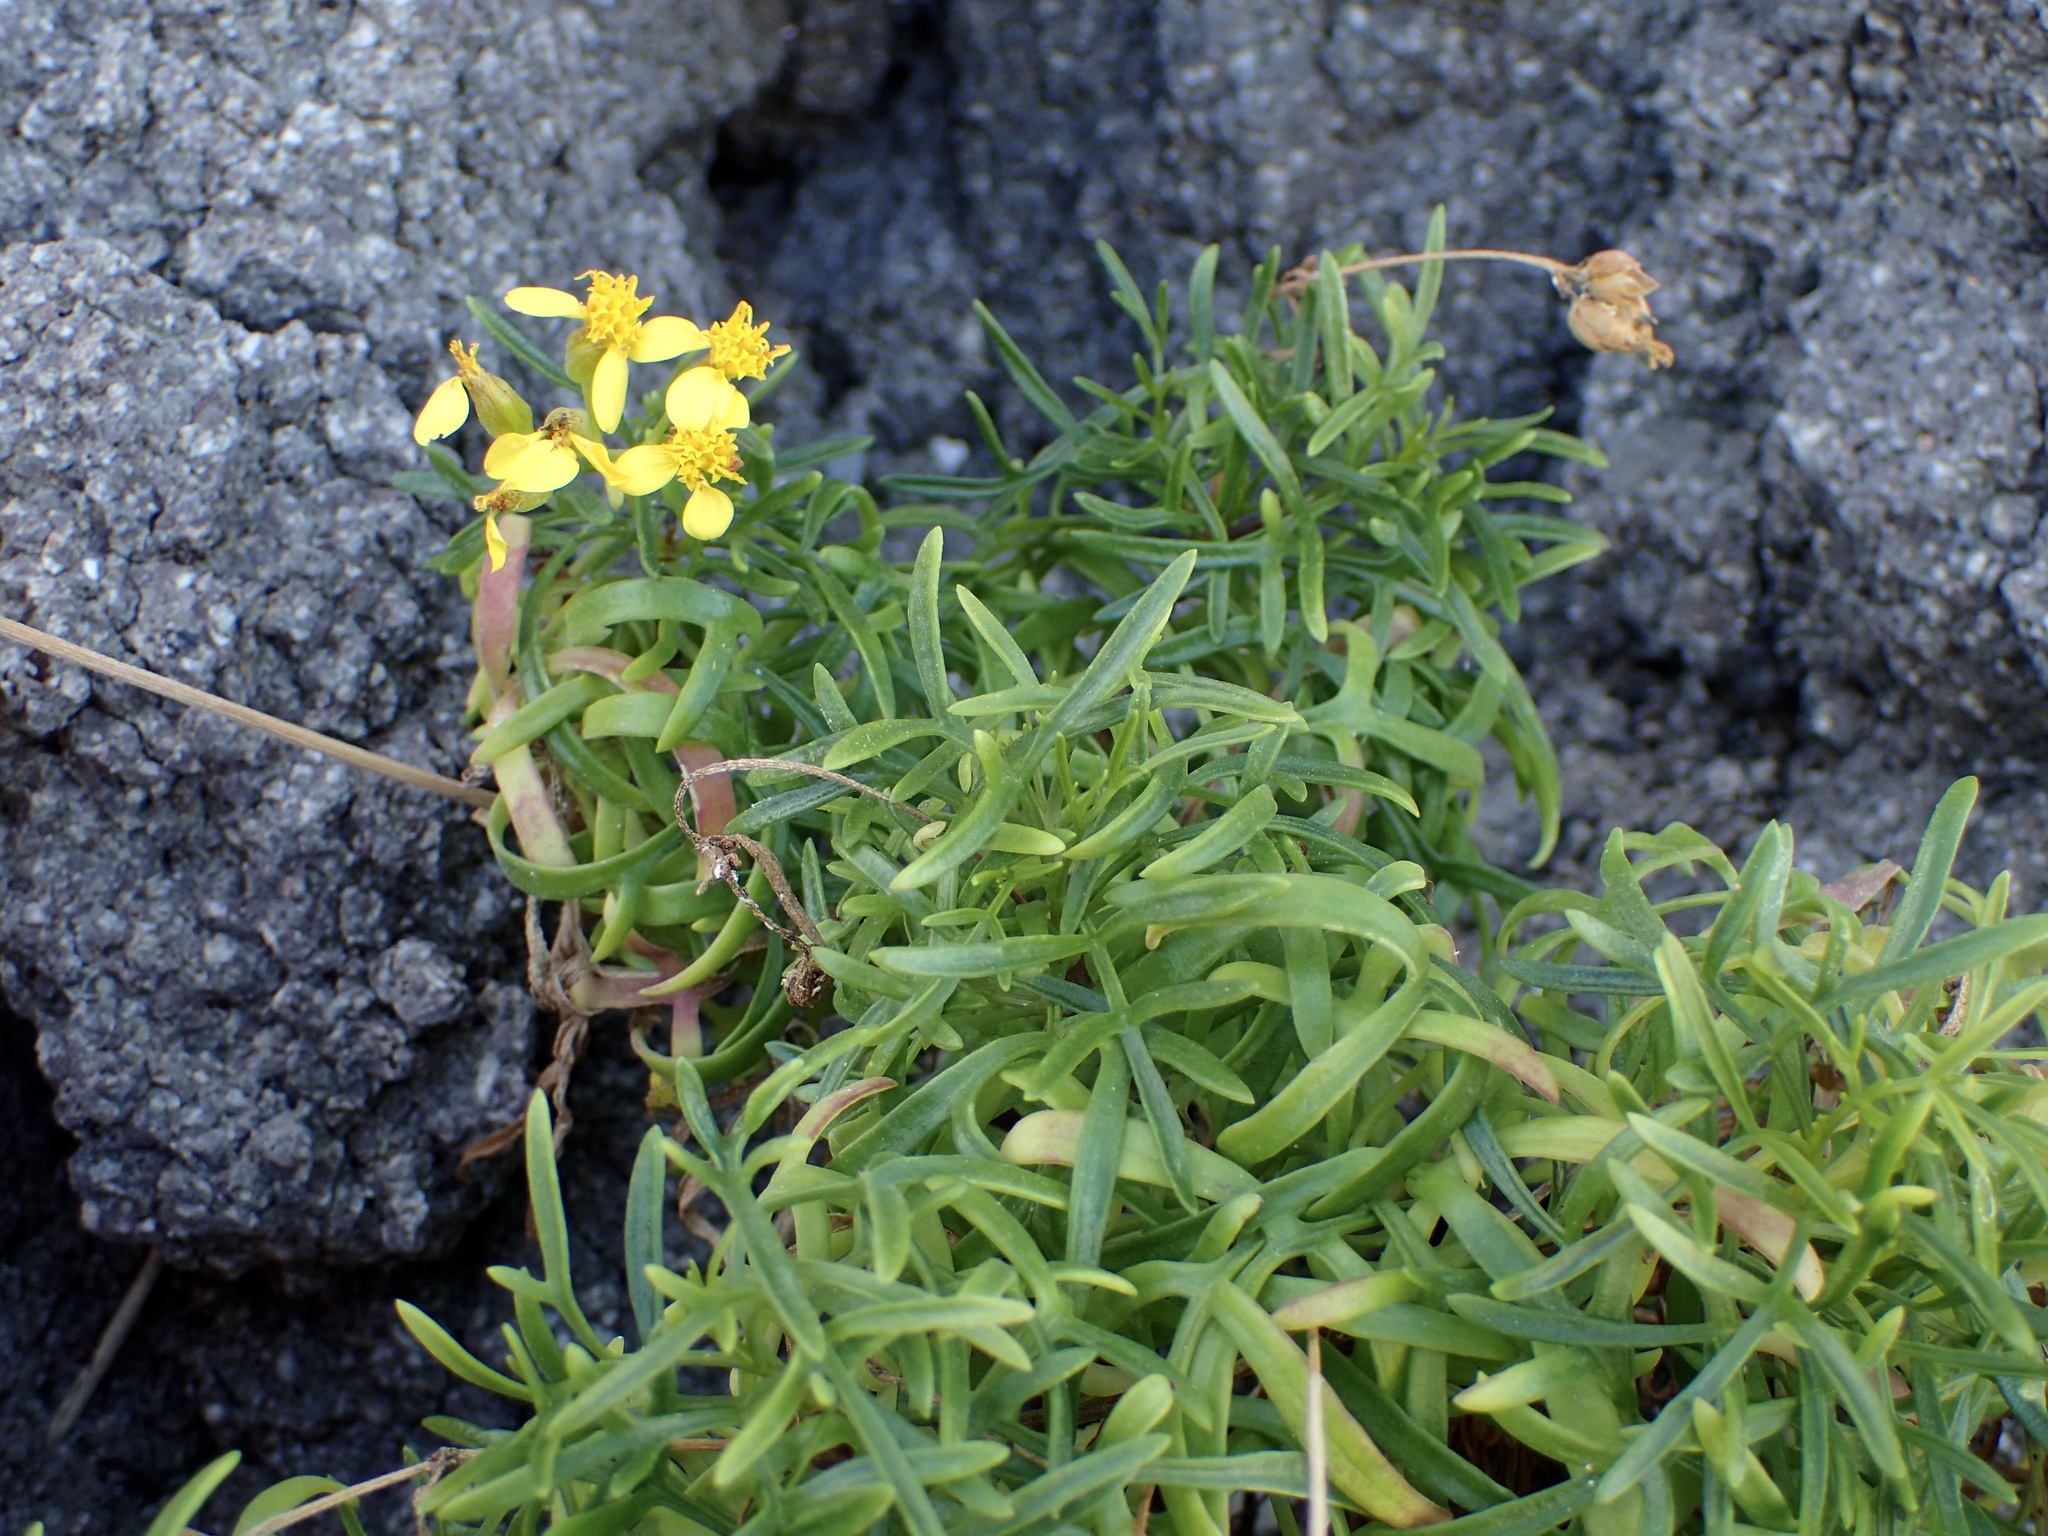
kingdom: Plantae
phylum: Tracheophyta
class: Magnoliopsida
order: Asterales
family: Asteraceae
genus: Coreocarpus
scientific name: Coreocarpus dissectus
